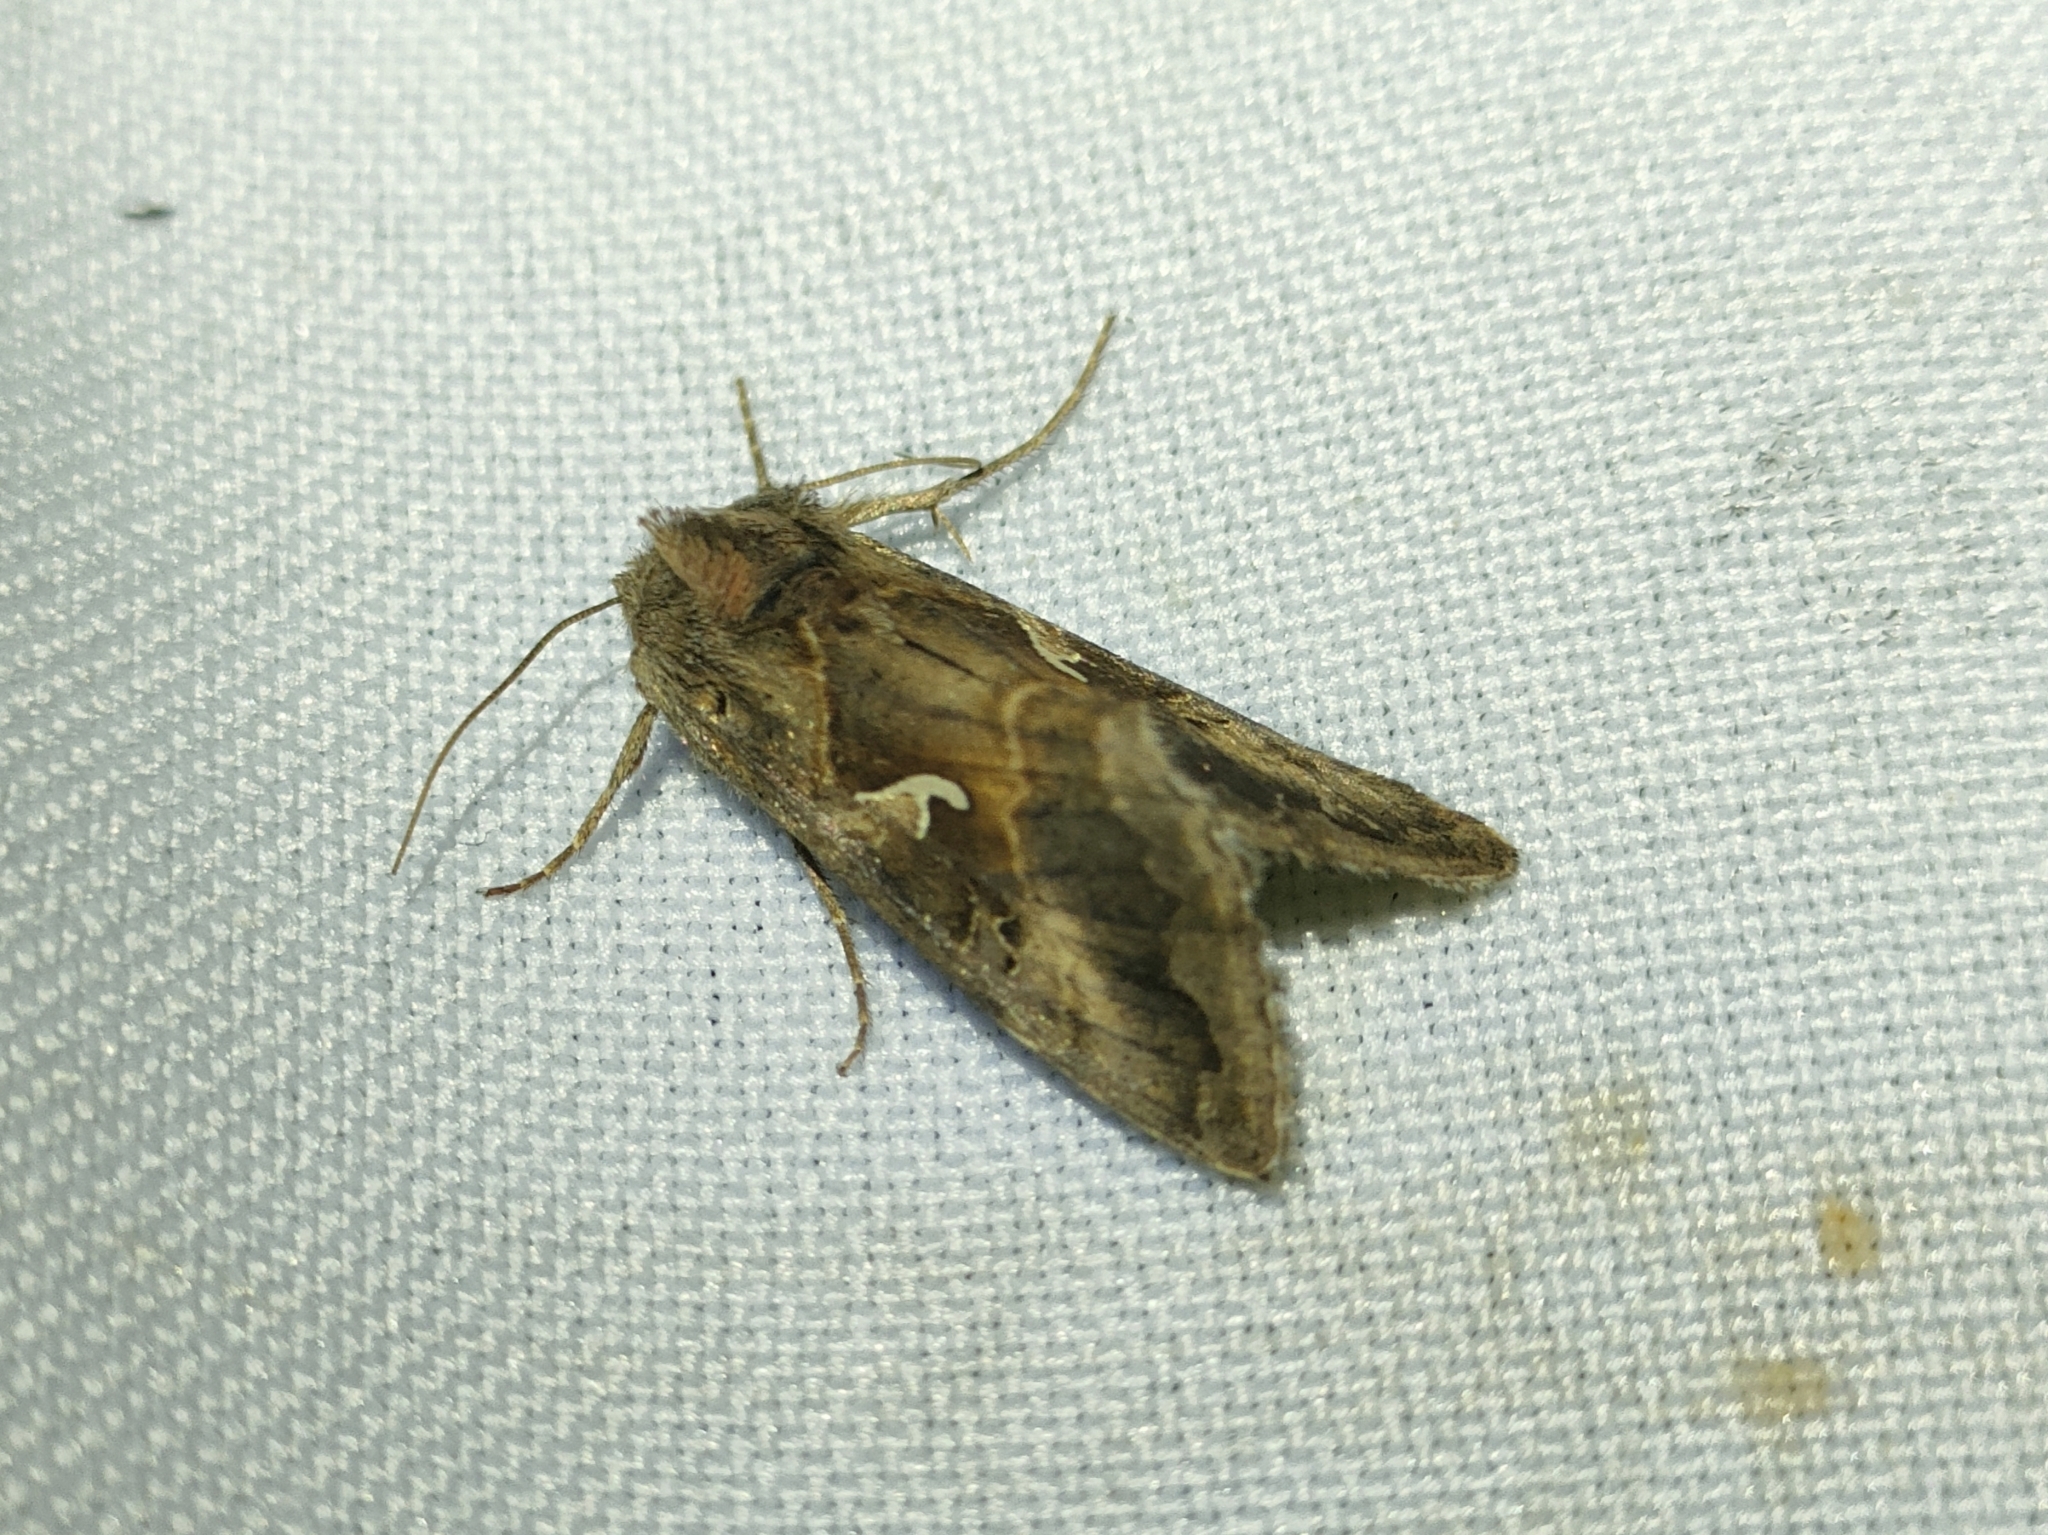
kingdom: Animalia
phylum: Arthropoda
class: Insecta
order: Lepidoptera
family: Noctuidae
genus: Autographa
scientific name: Autographa gamma
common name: Silver y
